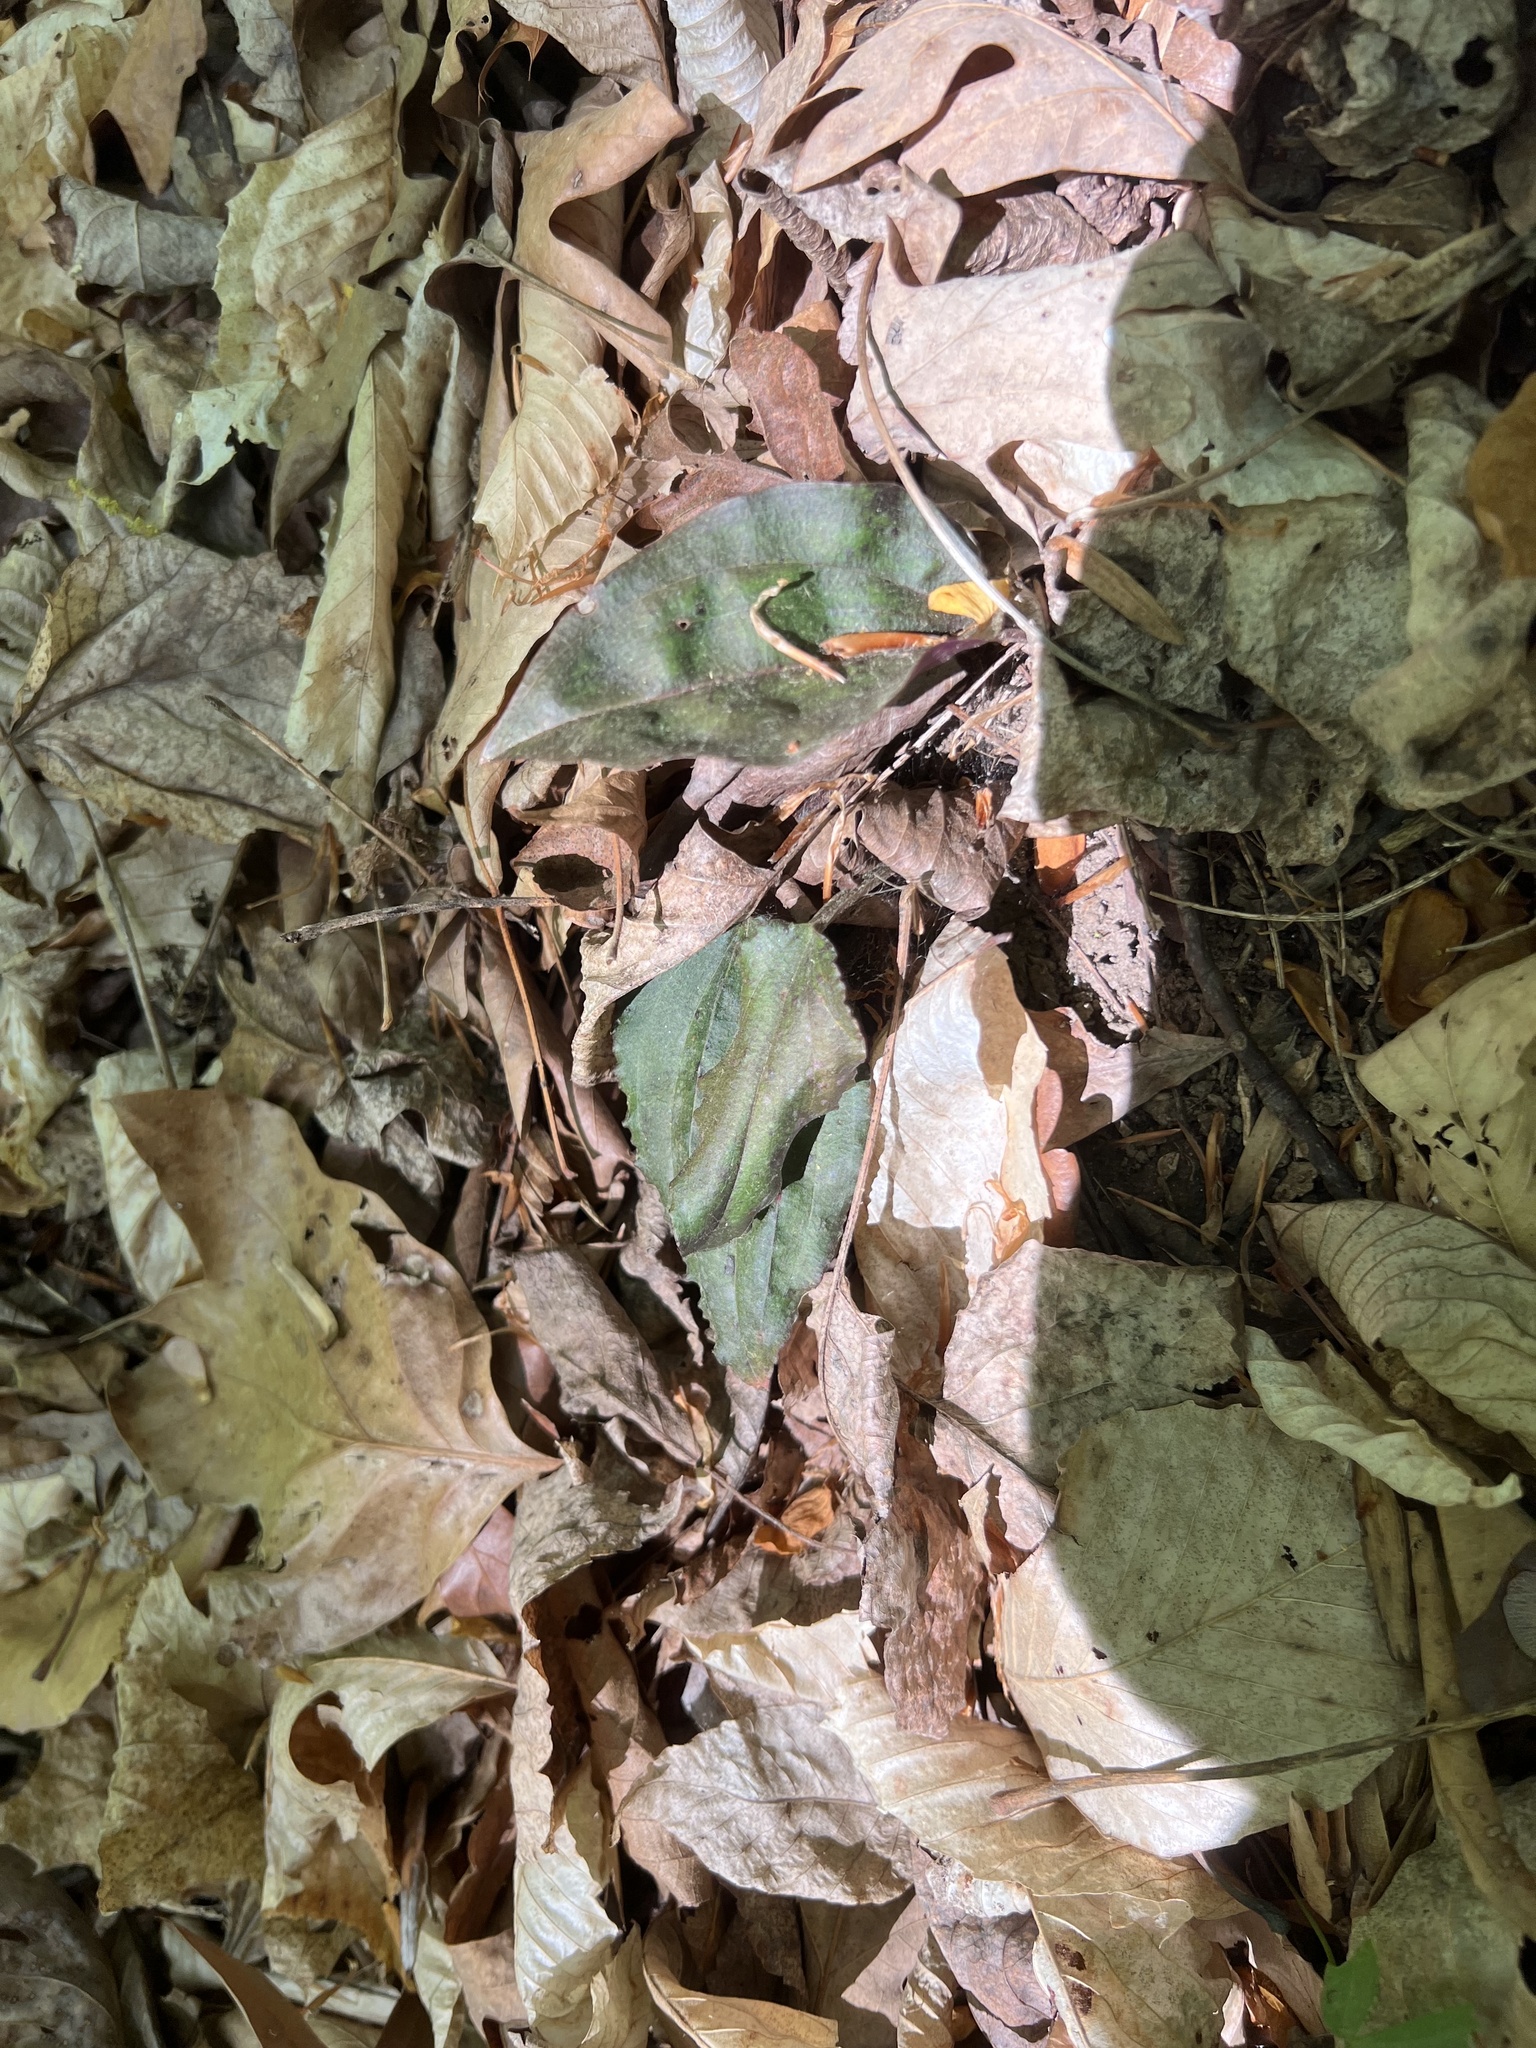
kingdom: Plantae
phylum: Tracheophyta
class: Liliopsida
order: Asparagales
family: Orchidaceae
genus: Tipularia
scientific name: Tipularia discolor
